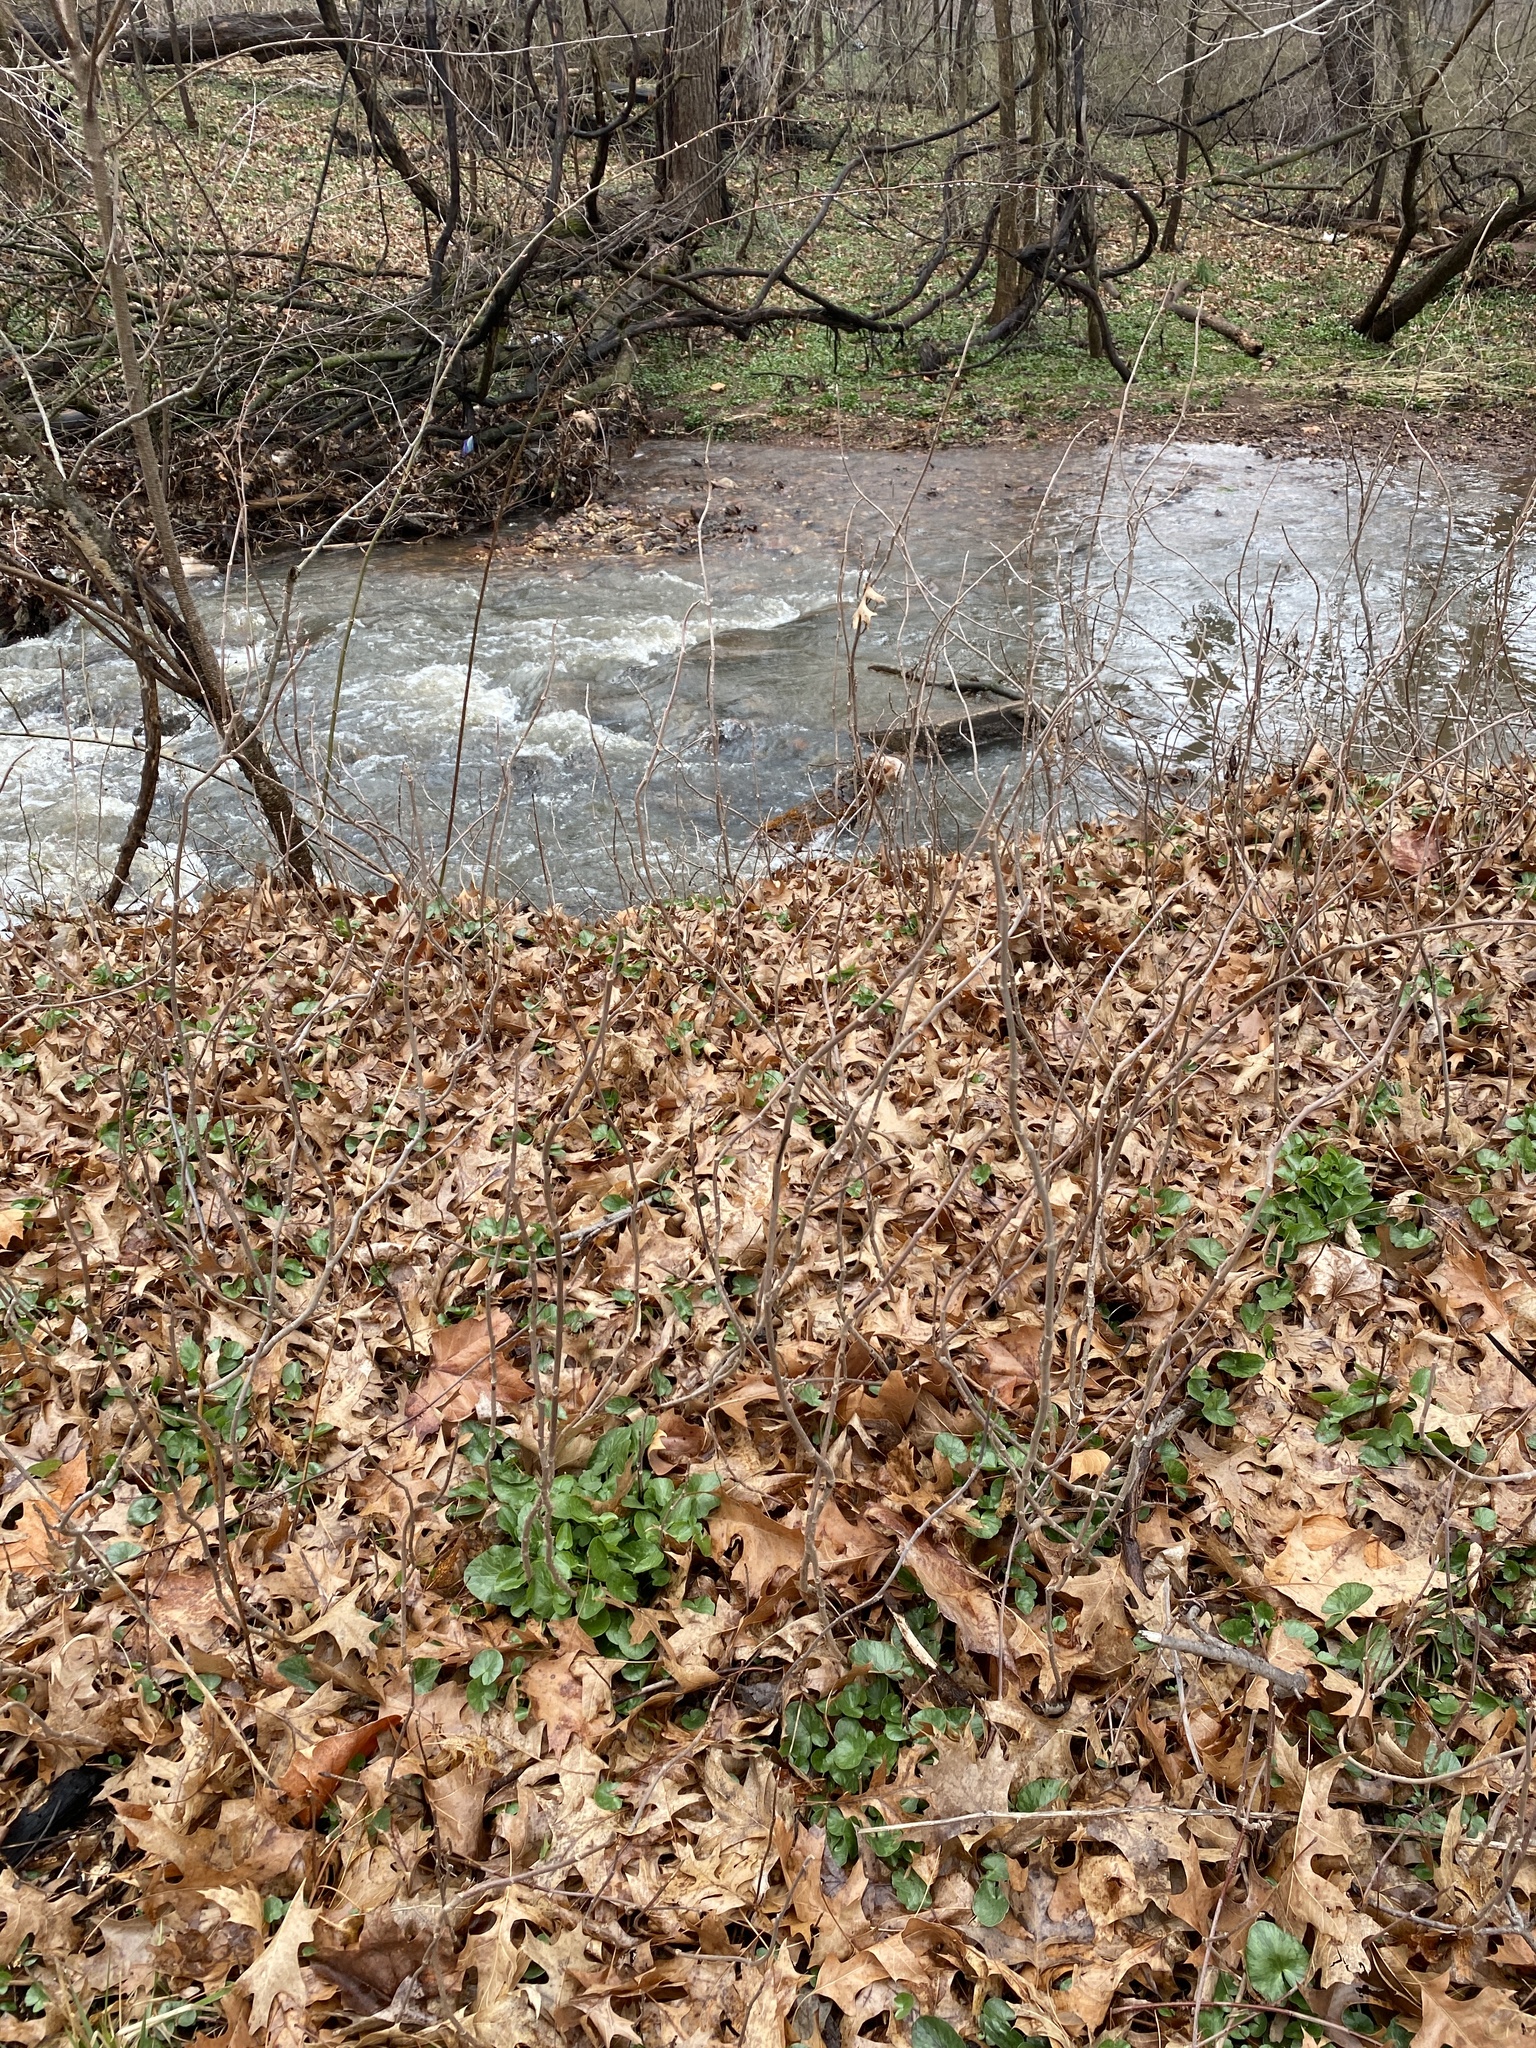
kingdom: Plantae
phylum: Tracheophyta
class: Magnoliopsida
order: Sapindales
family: Anacardiaceae
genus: Toxicodendron
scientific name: Toxicodendron radicans
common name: Poison ivy
